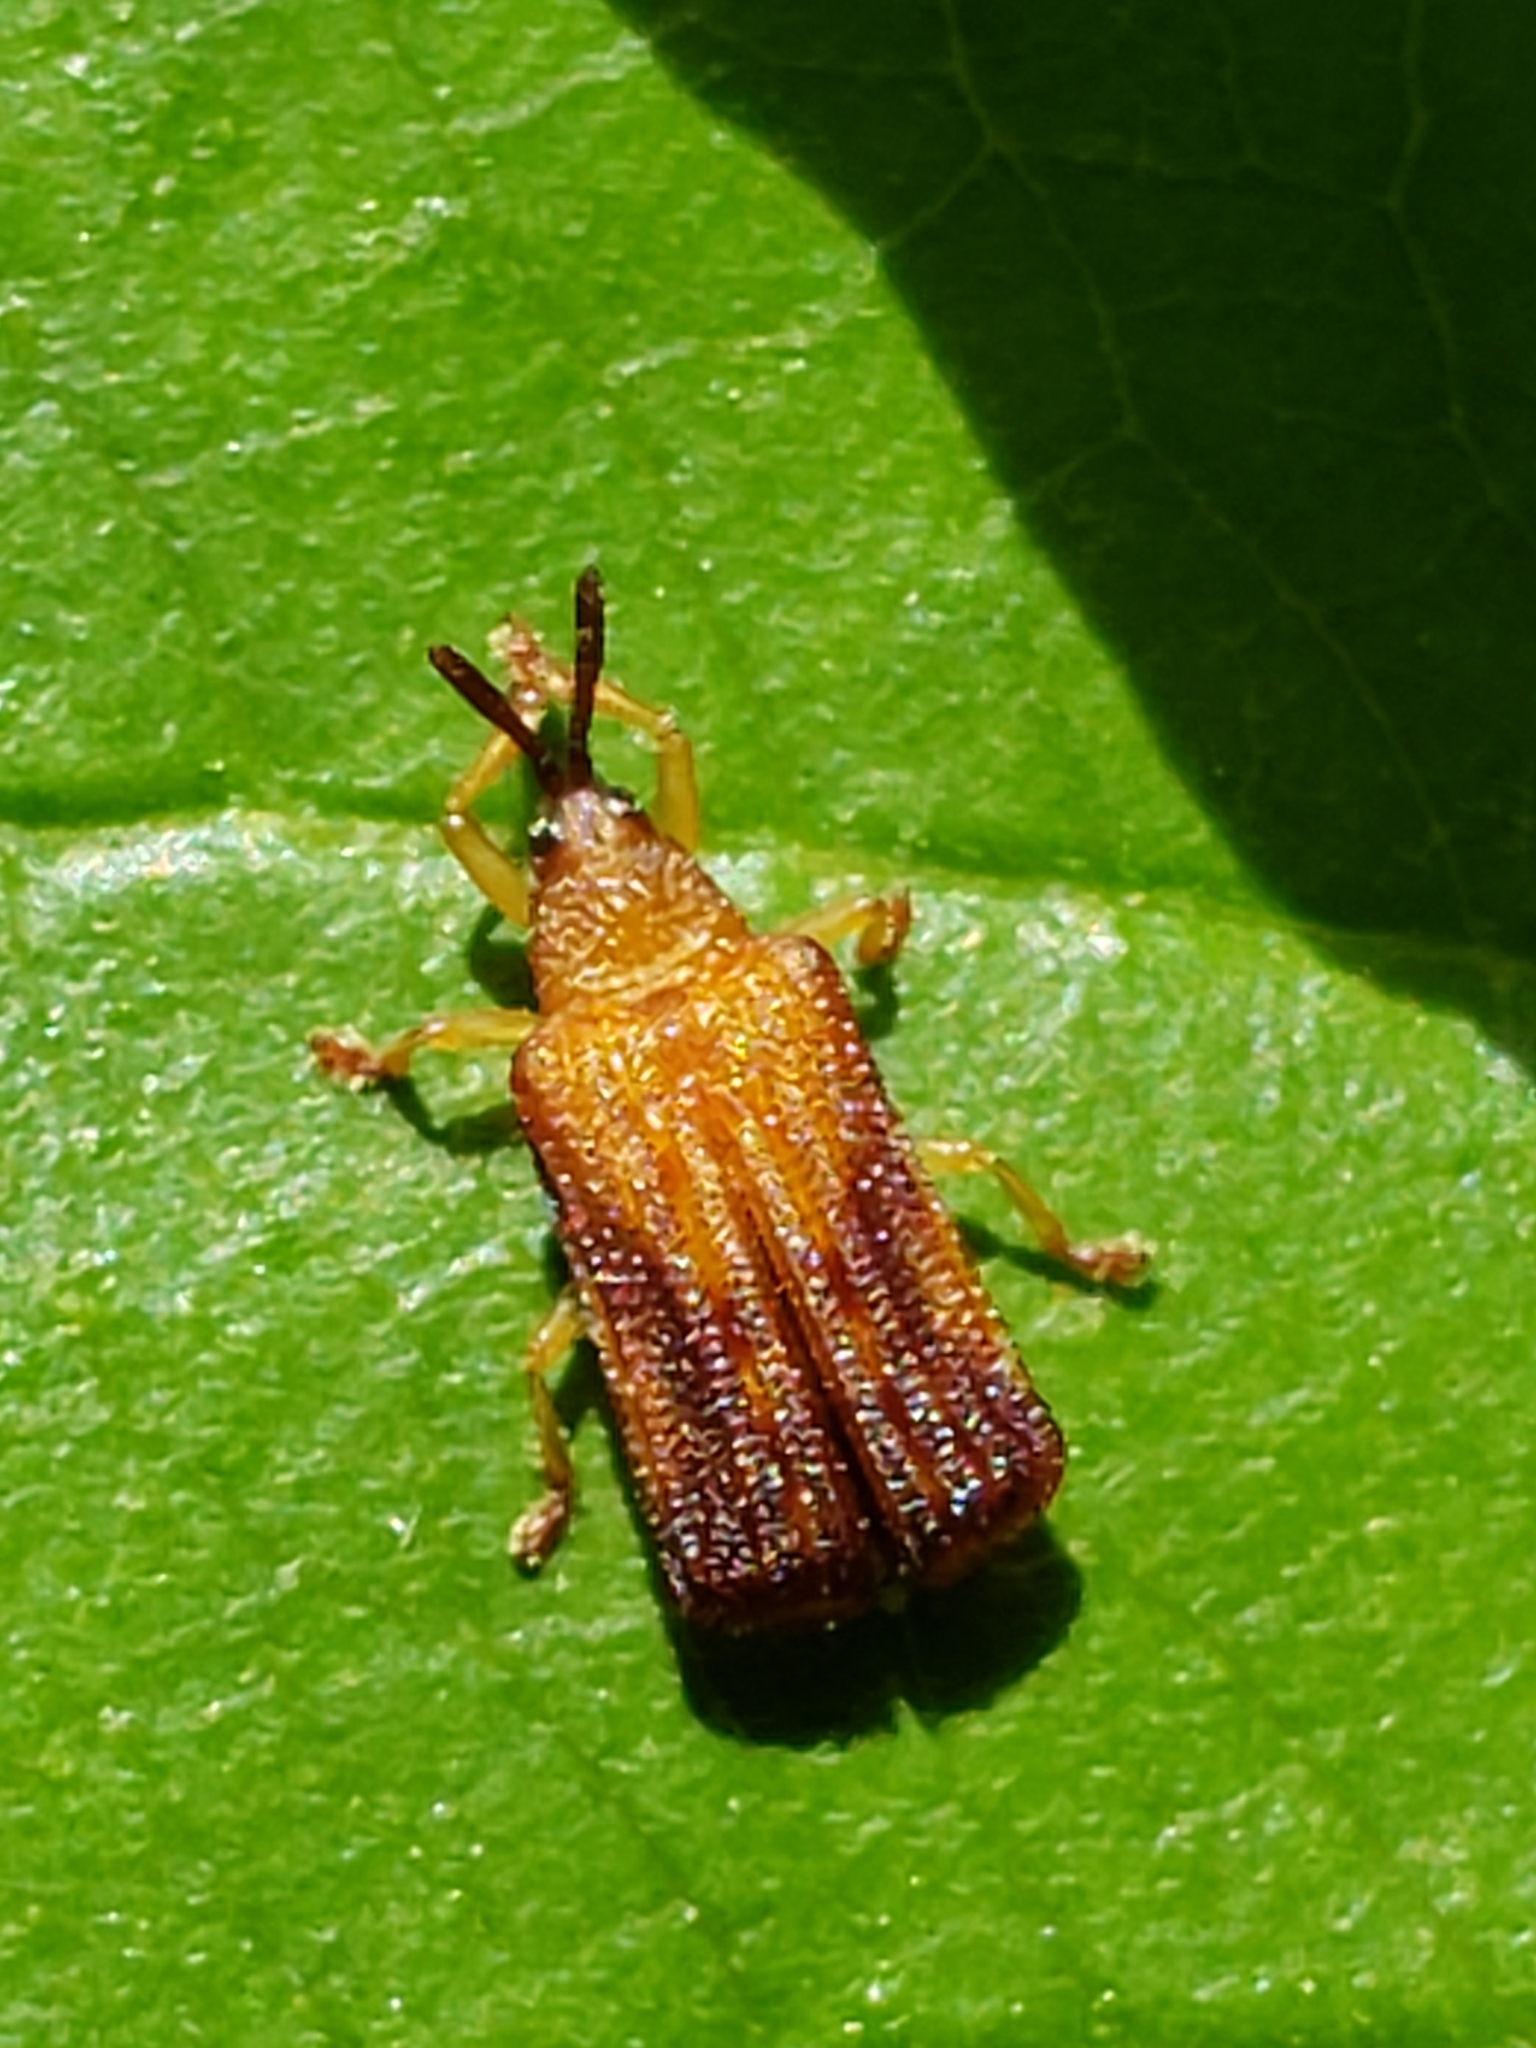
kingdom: Animalia
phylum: Arthropoda
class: Insecta
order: Coleoptera
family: Chrysomelidae
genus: Baliosus
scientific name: Baliosus nervosus
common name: Basswood leaf miner
